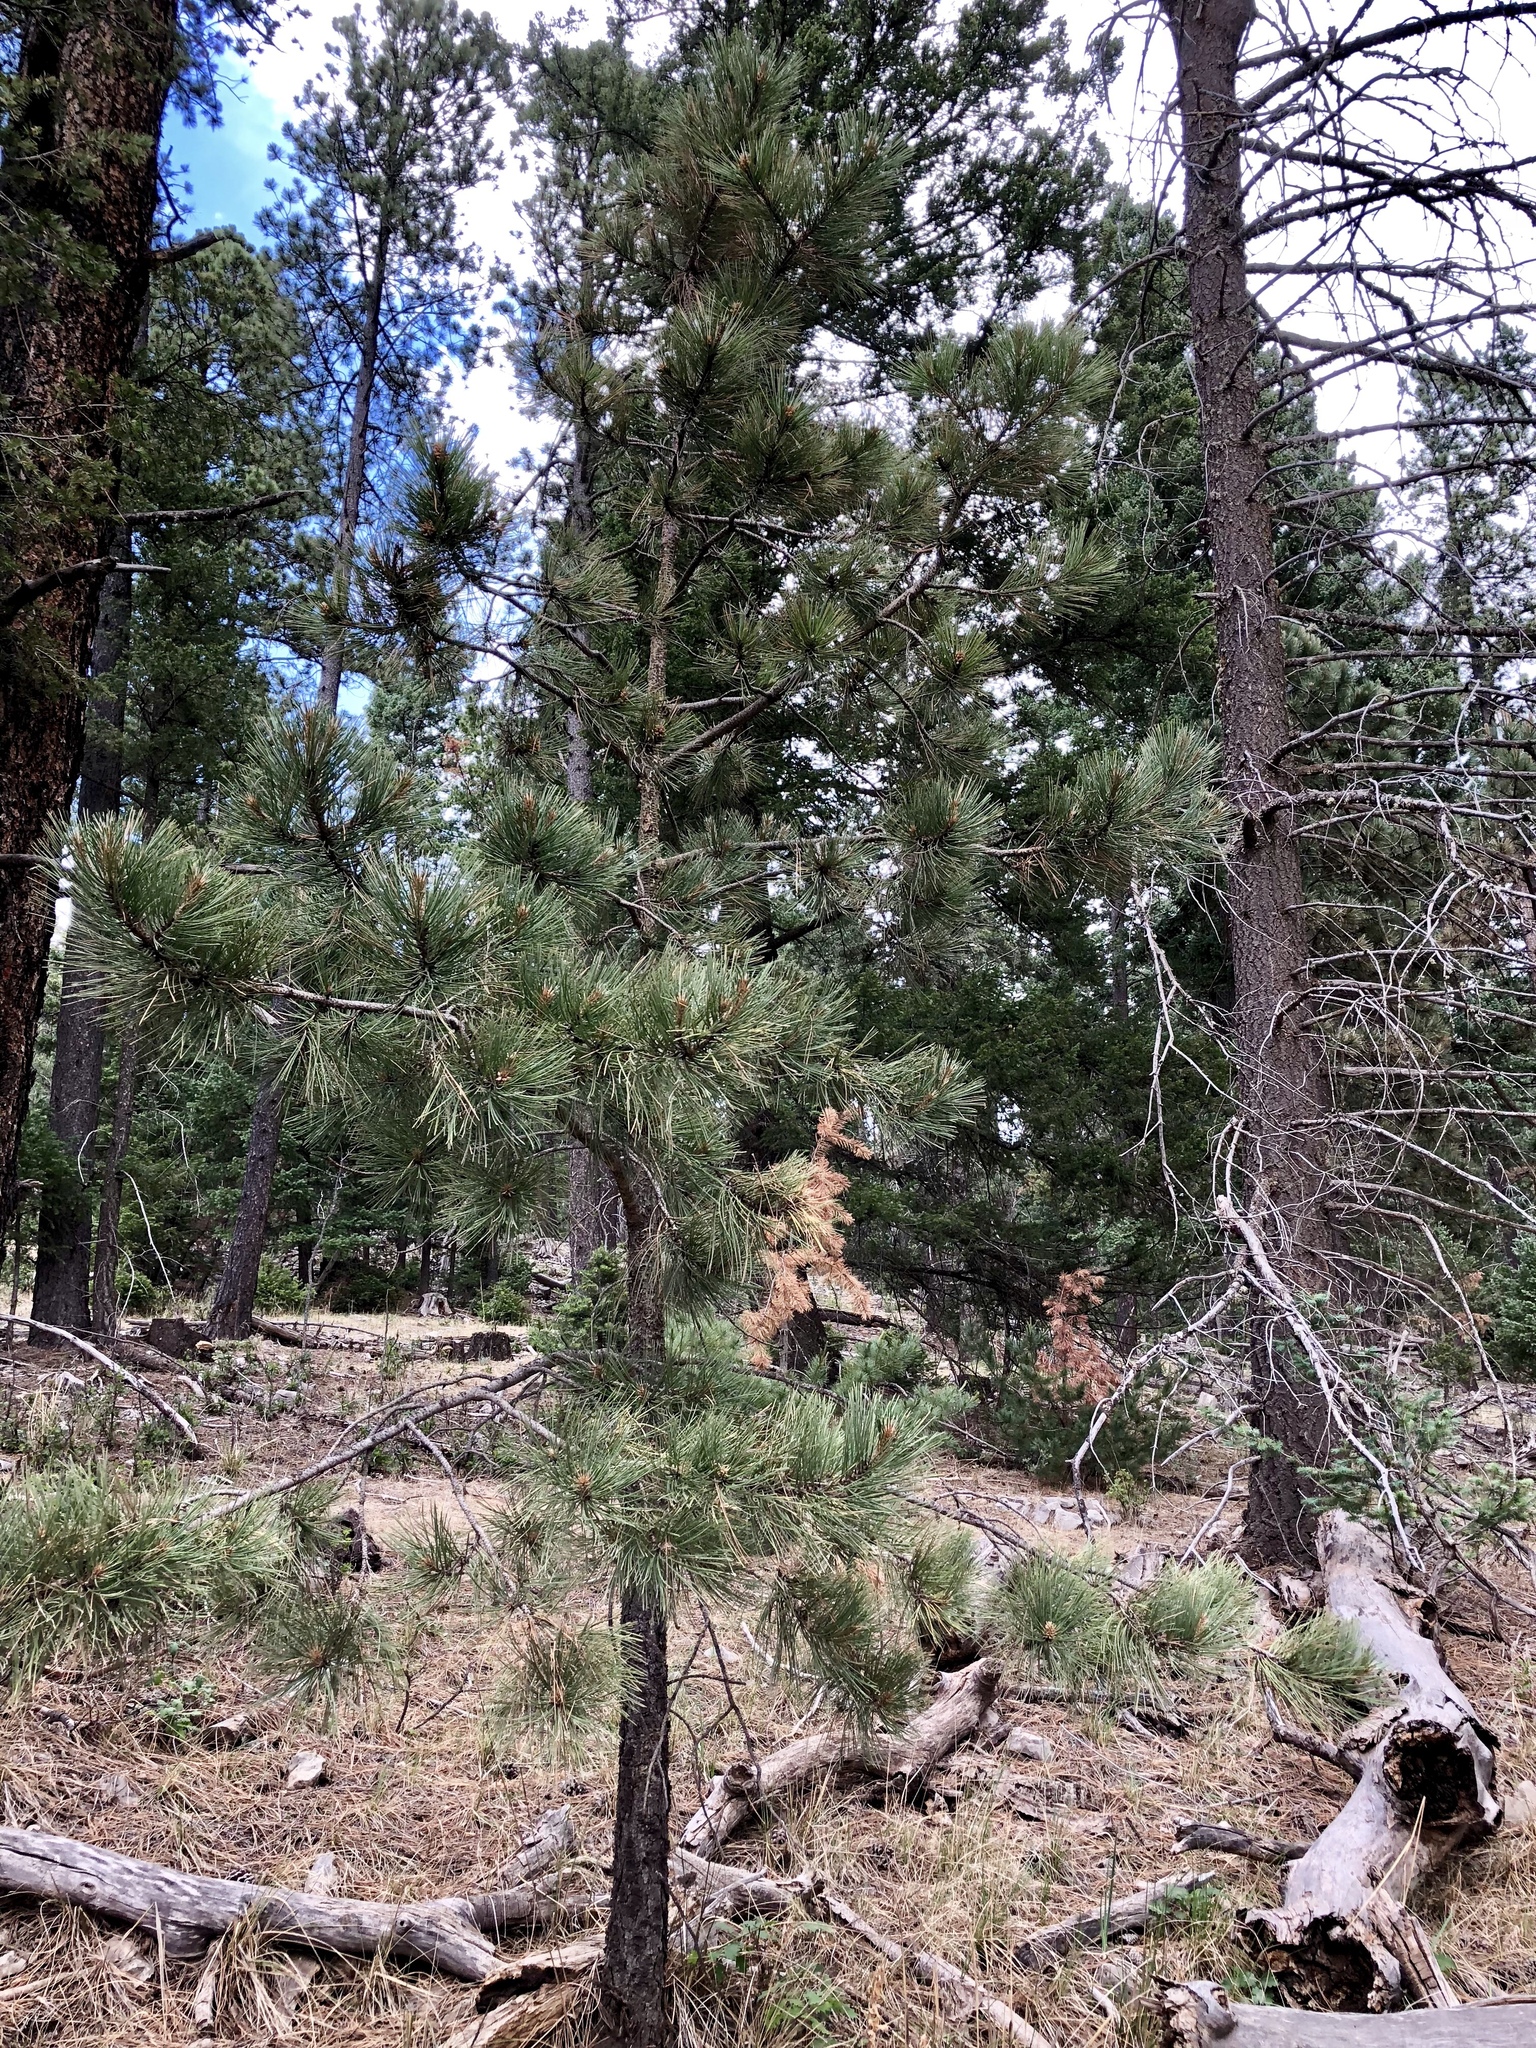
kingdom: Plantae
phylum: Tracheophyta
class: Pinopsida
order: Pinales
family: Pinaceae
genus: Pinus
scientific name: Pinus ponderosa
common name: Western yellow-pine
